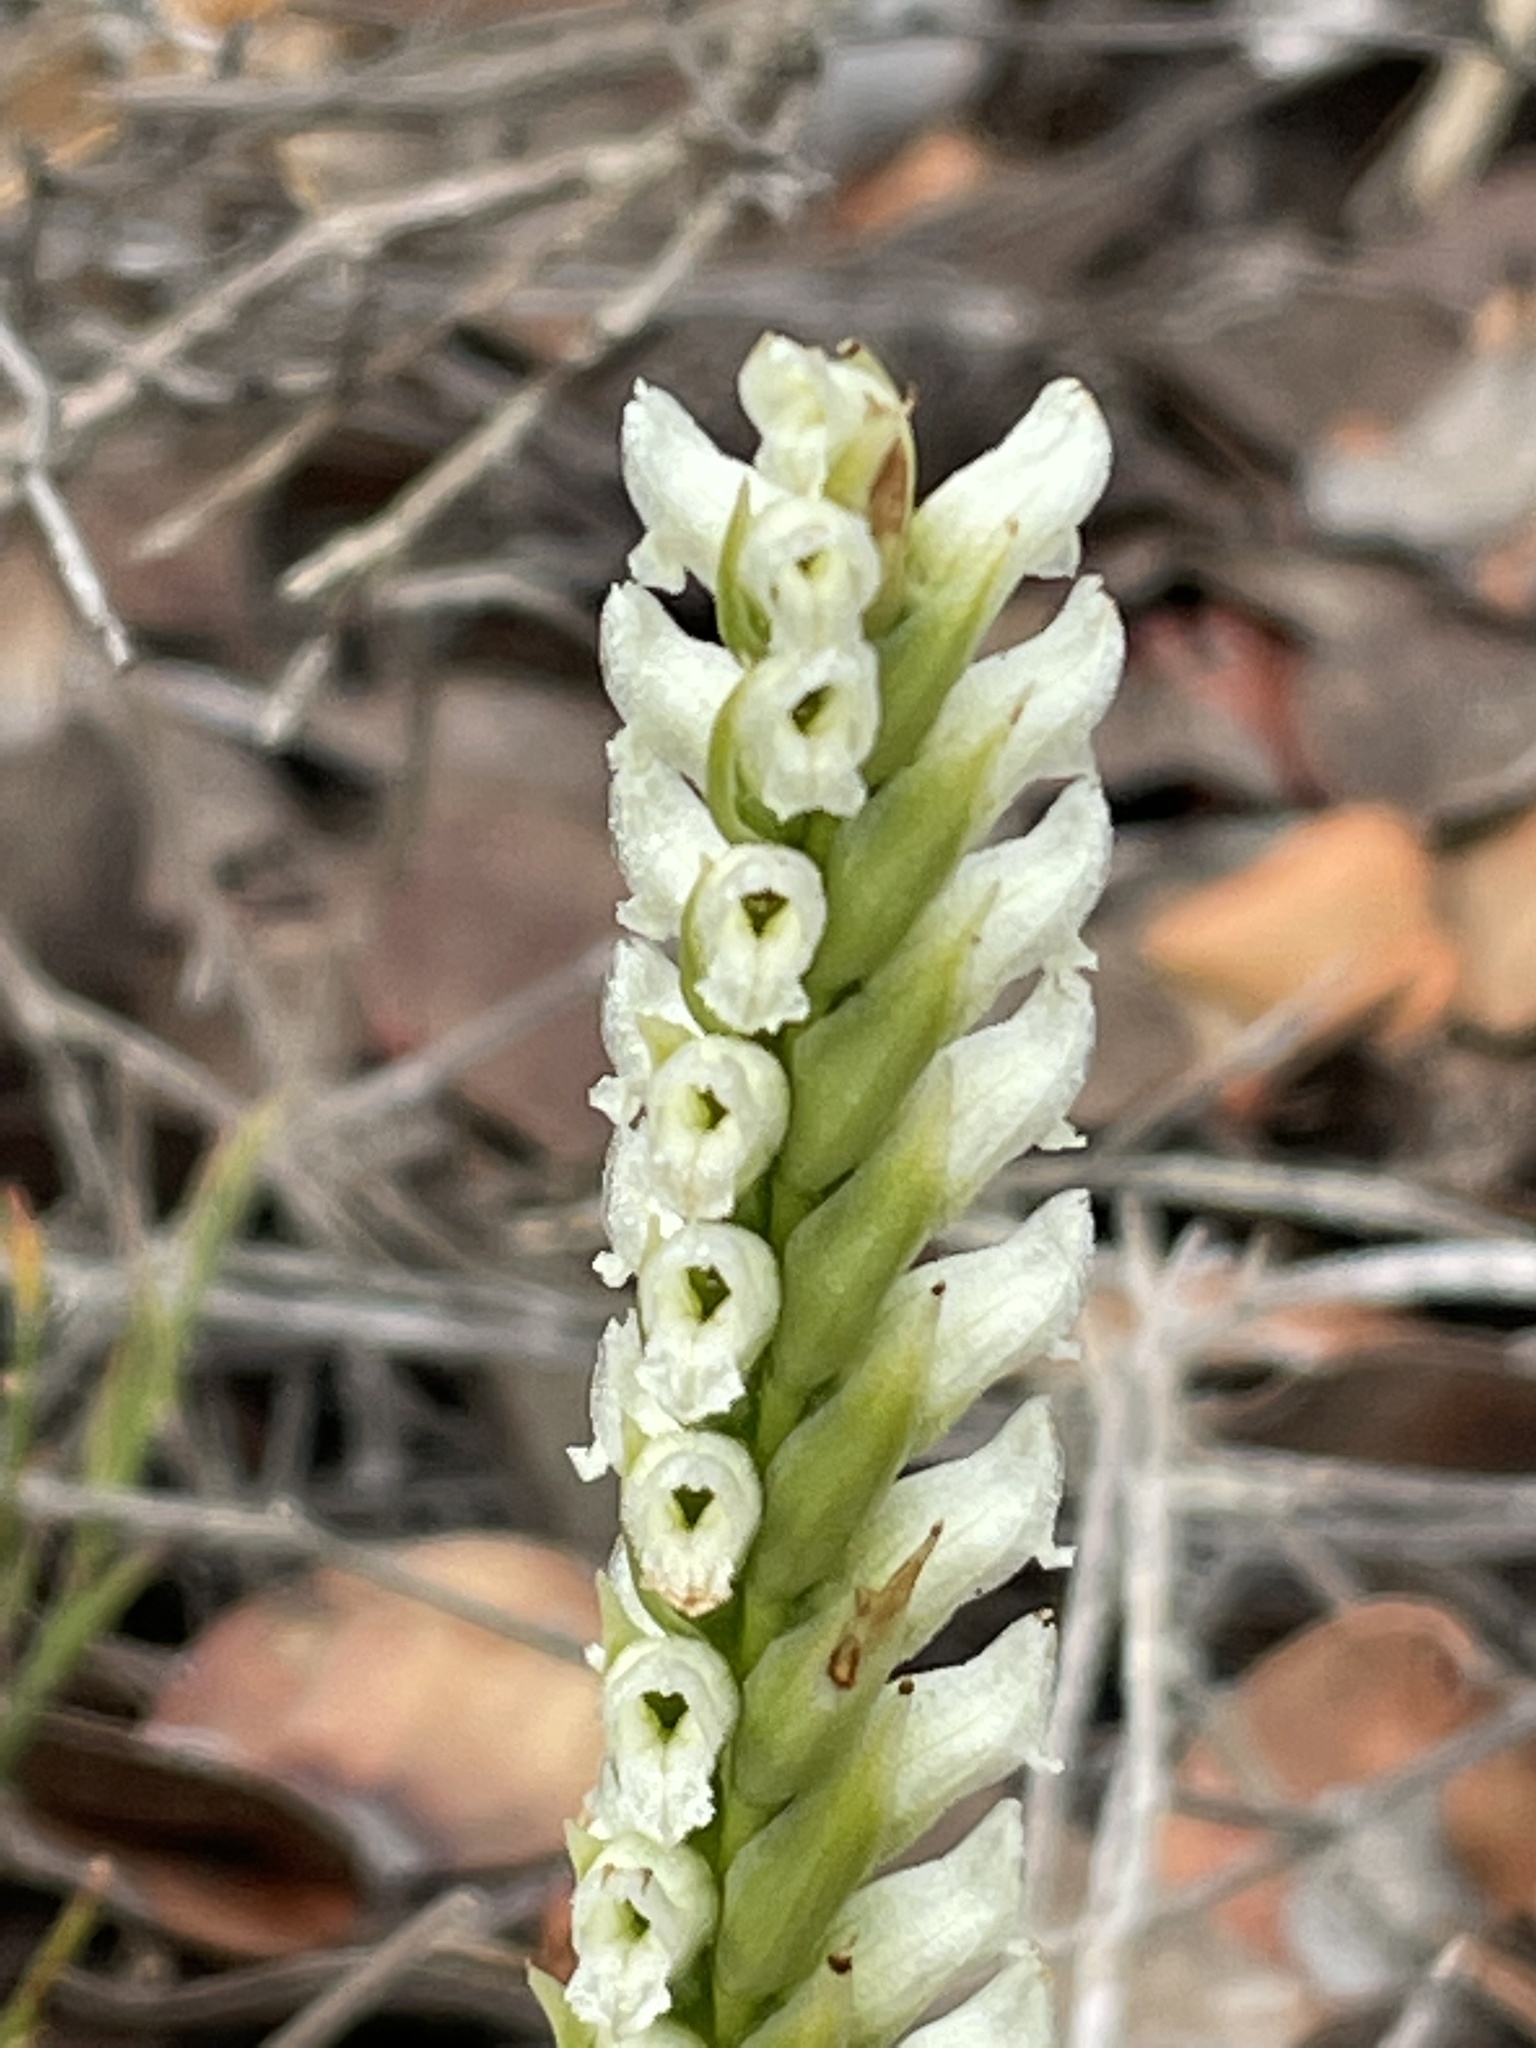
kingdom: Plantae
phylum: Tracheophyta
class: Liliopsida
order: Asparagales
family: Orchidaceae
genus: Spiranthes
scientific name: Spiranthes romanzoffiana
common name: Irish lady's-tresses
